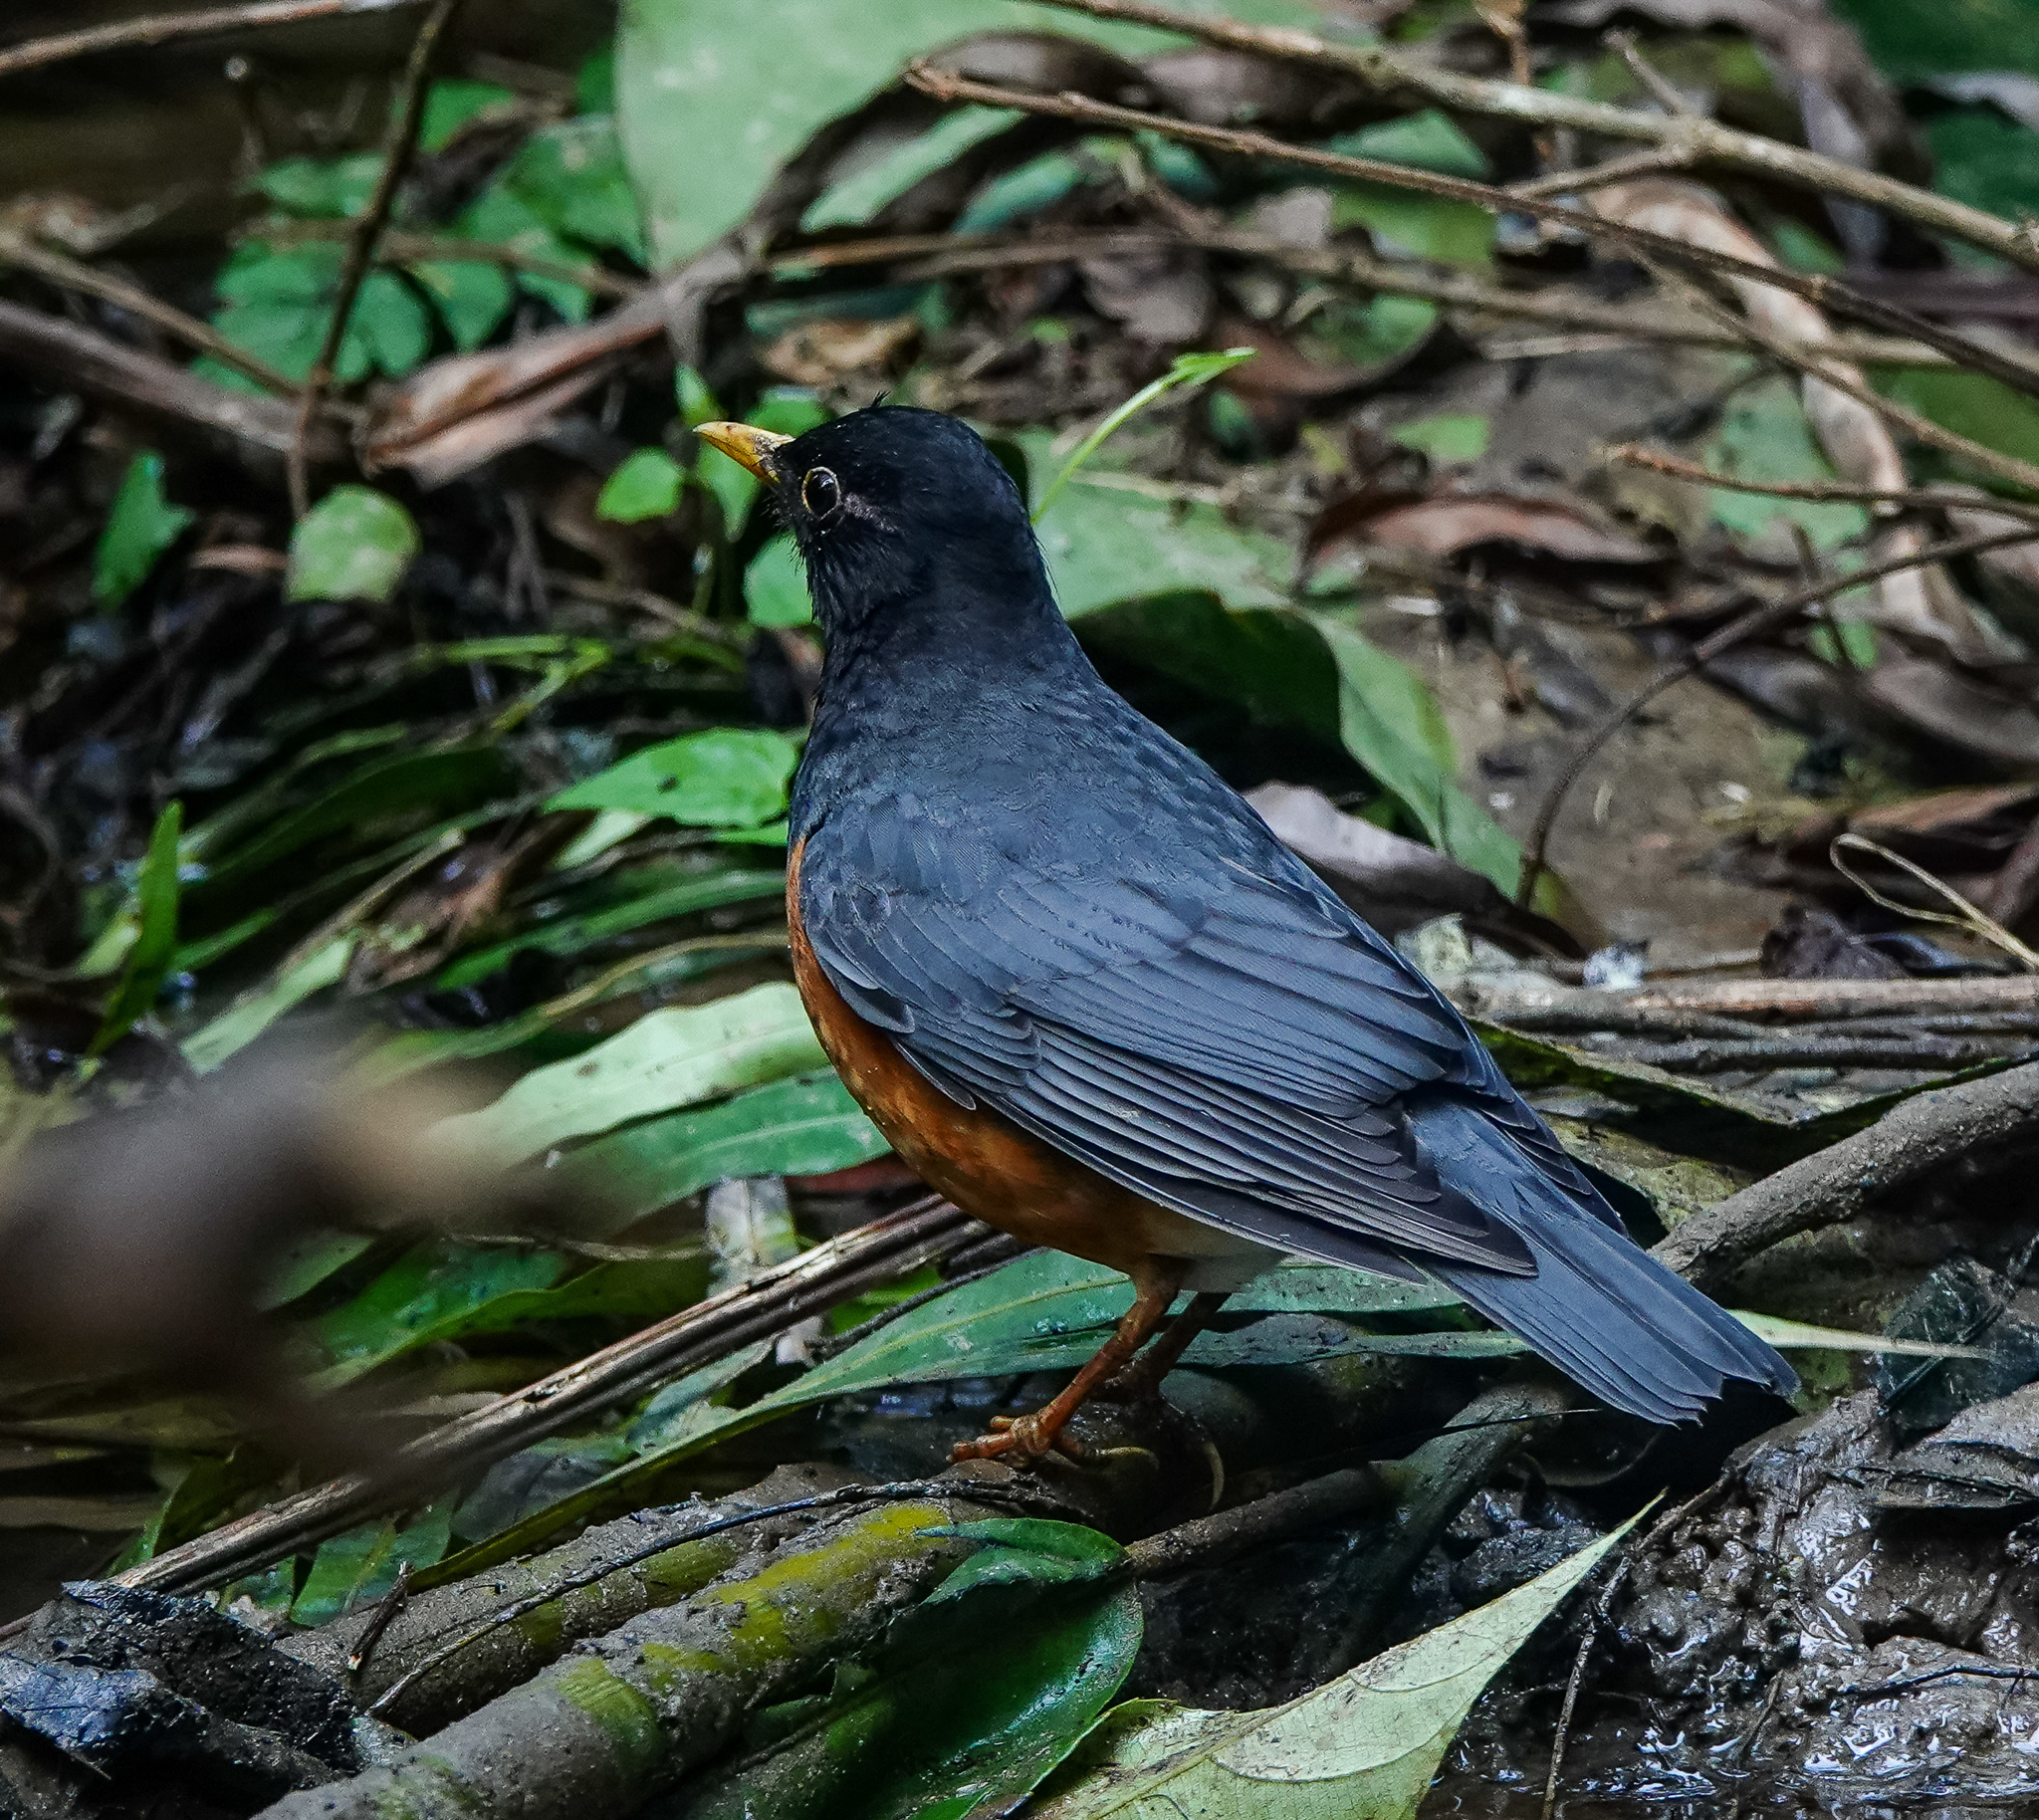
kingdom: Animalia
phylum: Chordata
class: Aves
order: Passeriformes
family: Turdidae
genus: Turdus
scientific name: Turdus dissimilis
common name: Black-breasted thrush
